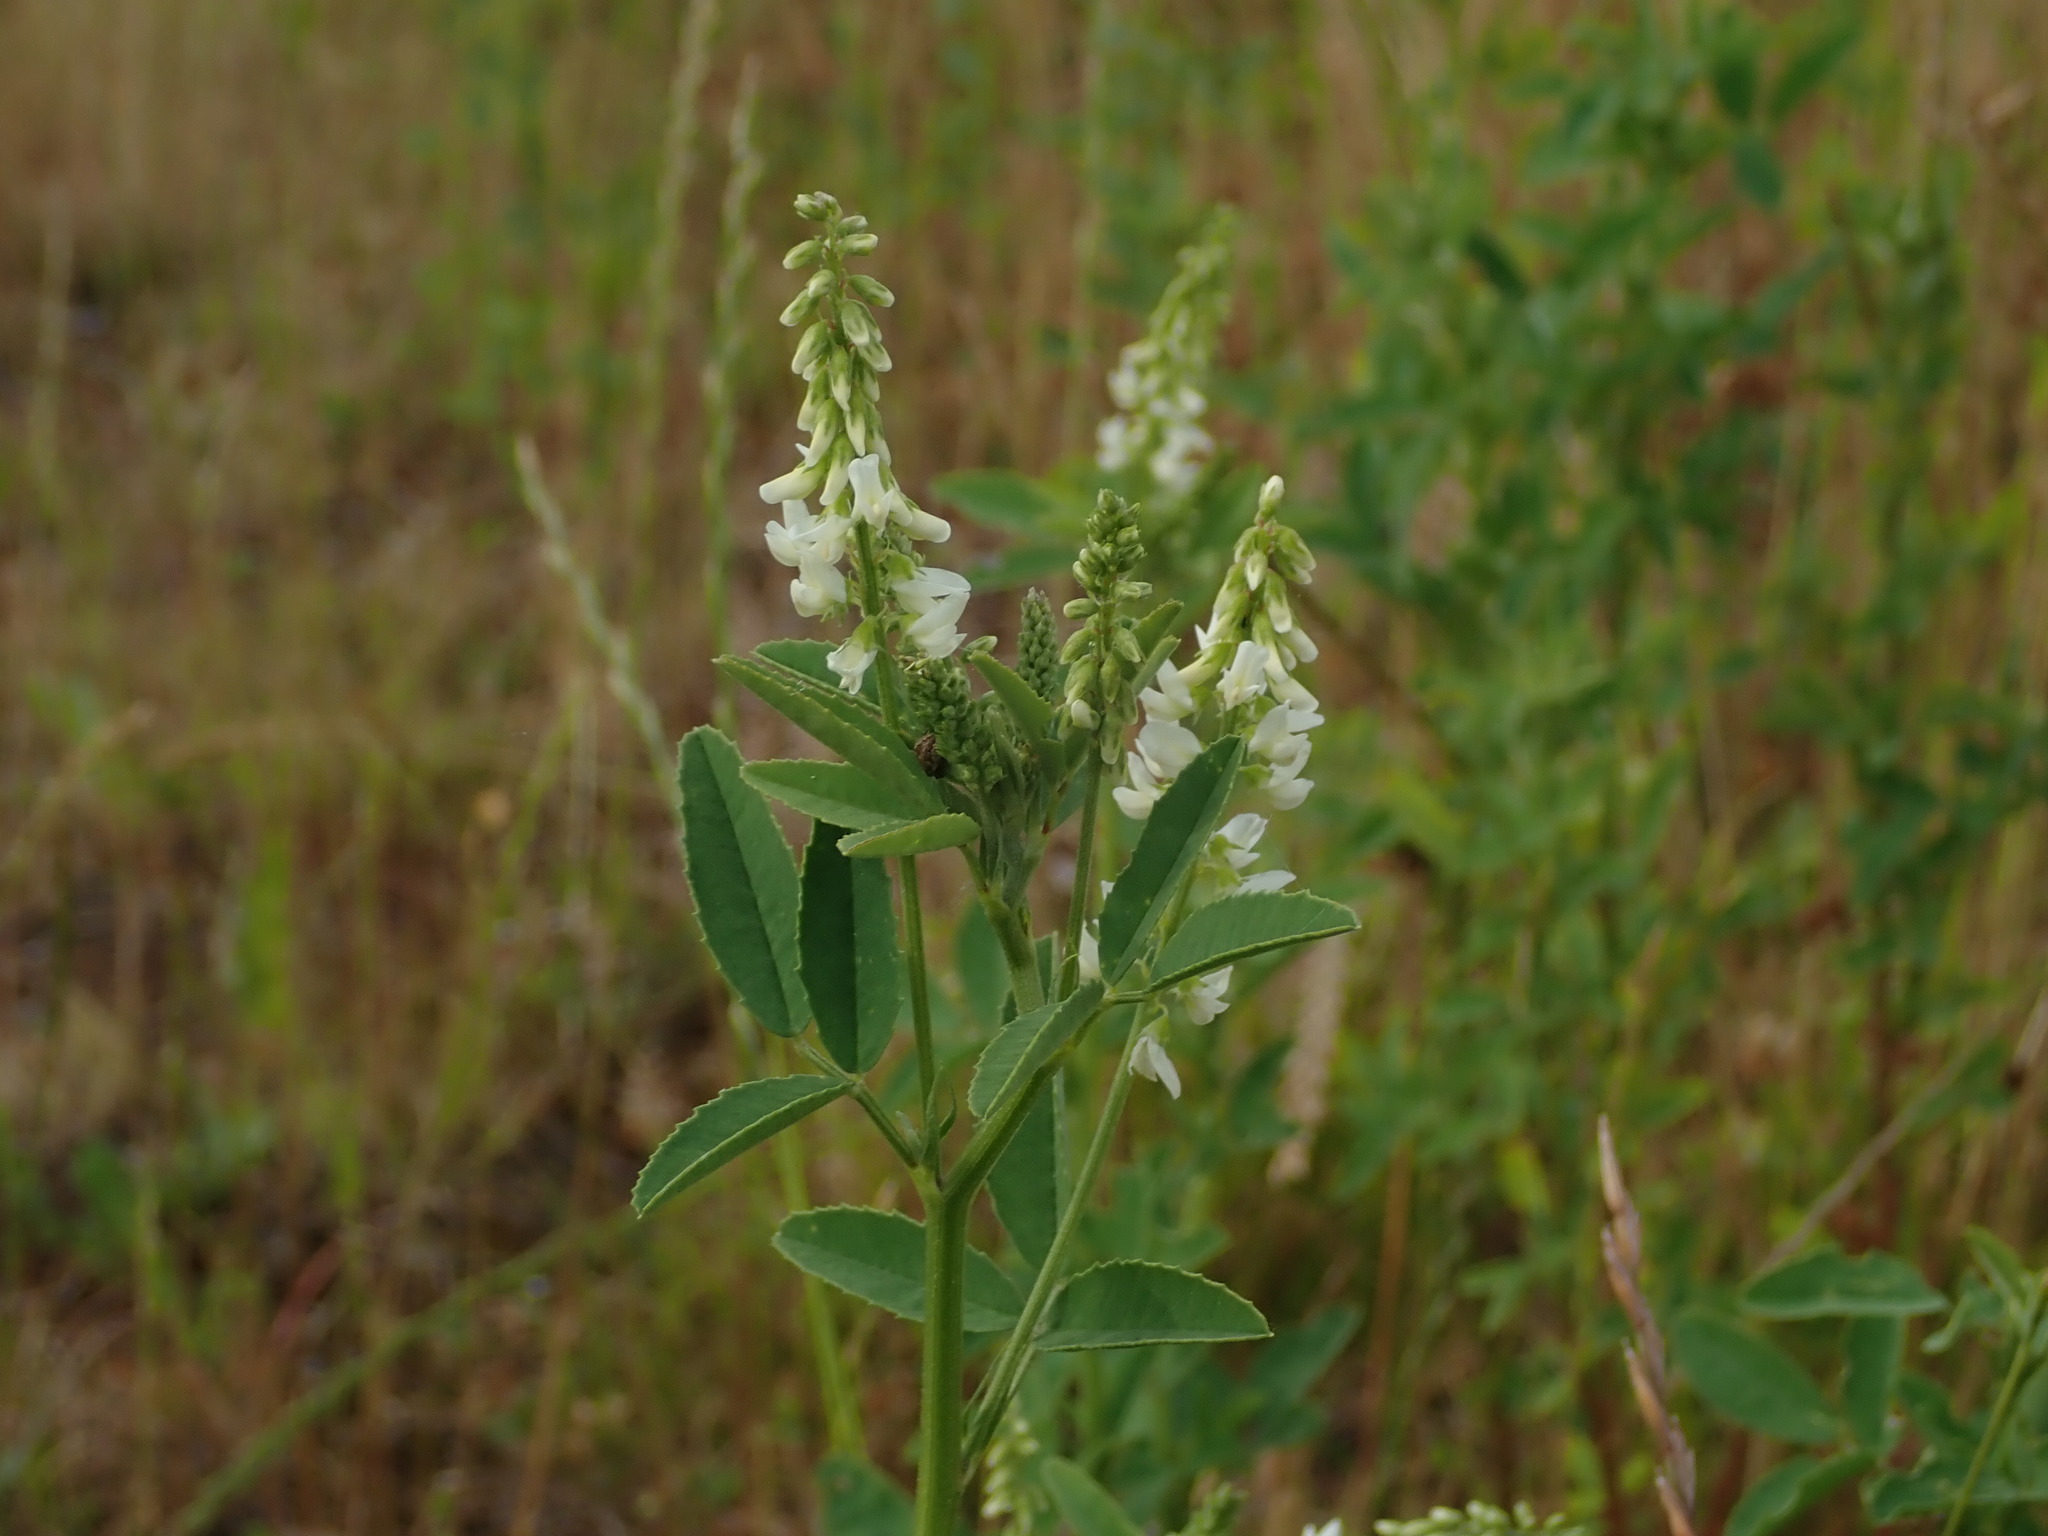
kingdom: Plantae
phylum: Tracheophyta
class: Magnoliopsida
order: Fabales
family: Fabaceae
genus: Melilotus
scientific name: Melilotus albus
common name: White melilot
